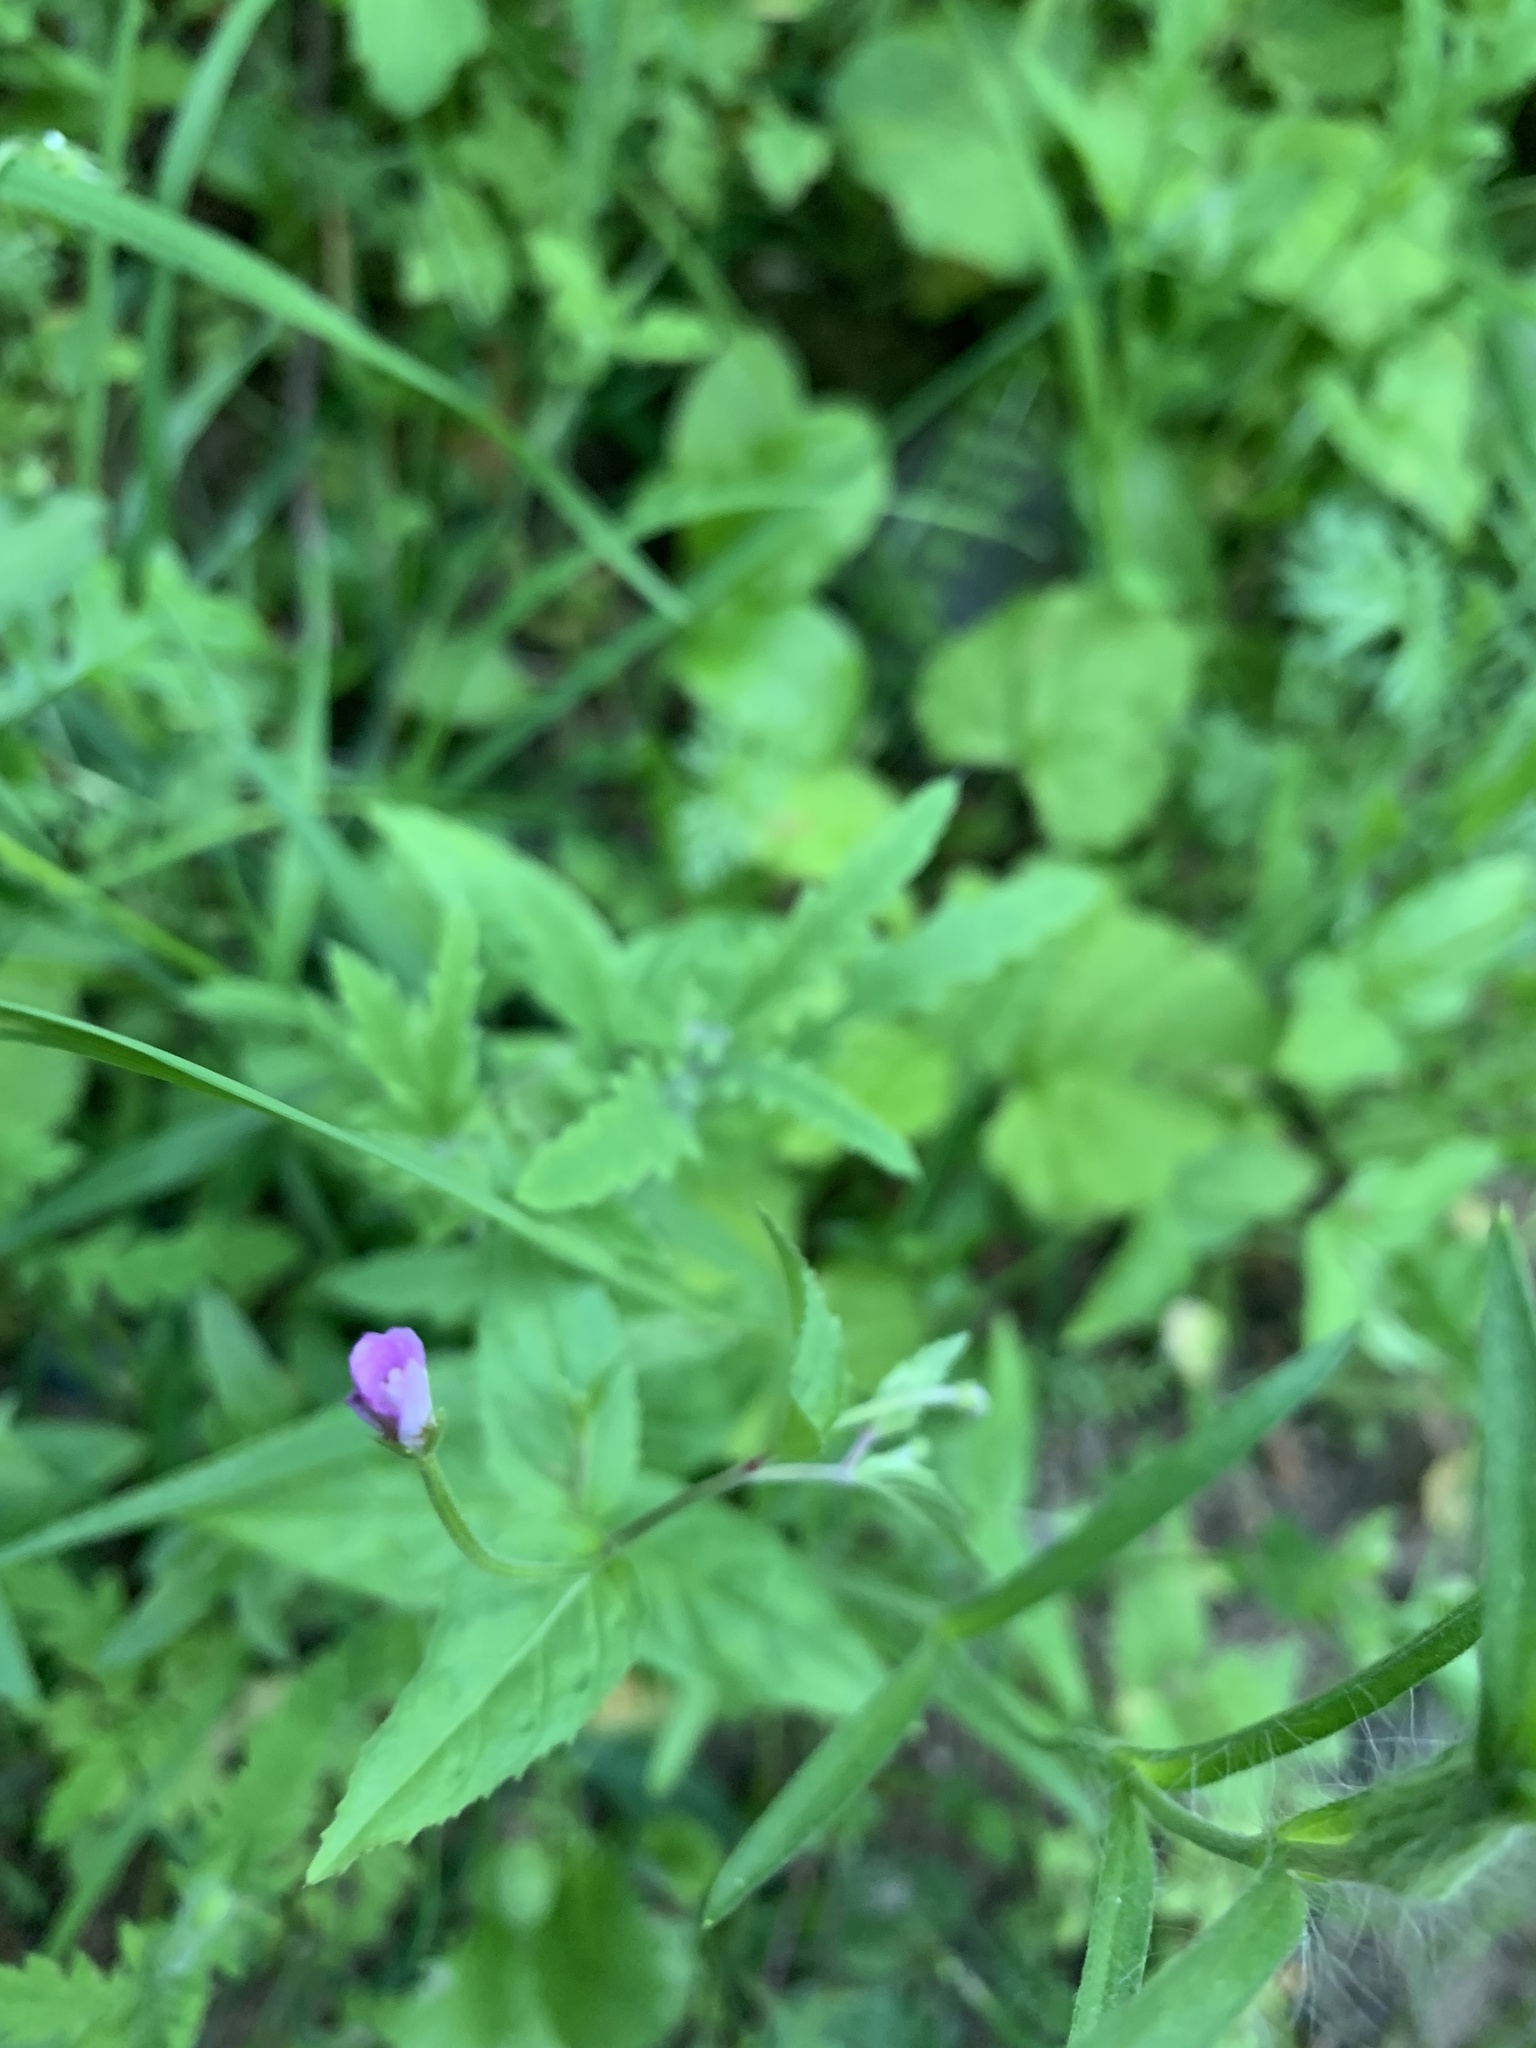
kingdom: Plantae
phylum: Tracheophyta
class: Magnoliopsida
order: Myrtales
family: Onagraceae
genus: Epilobium
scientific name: Epilobium montanum
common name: Broad-leaved willowherb
